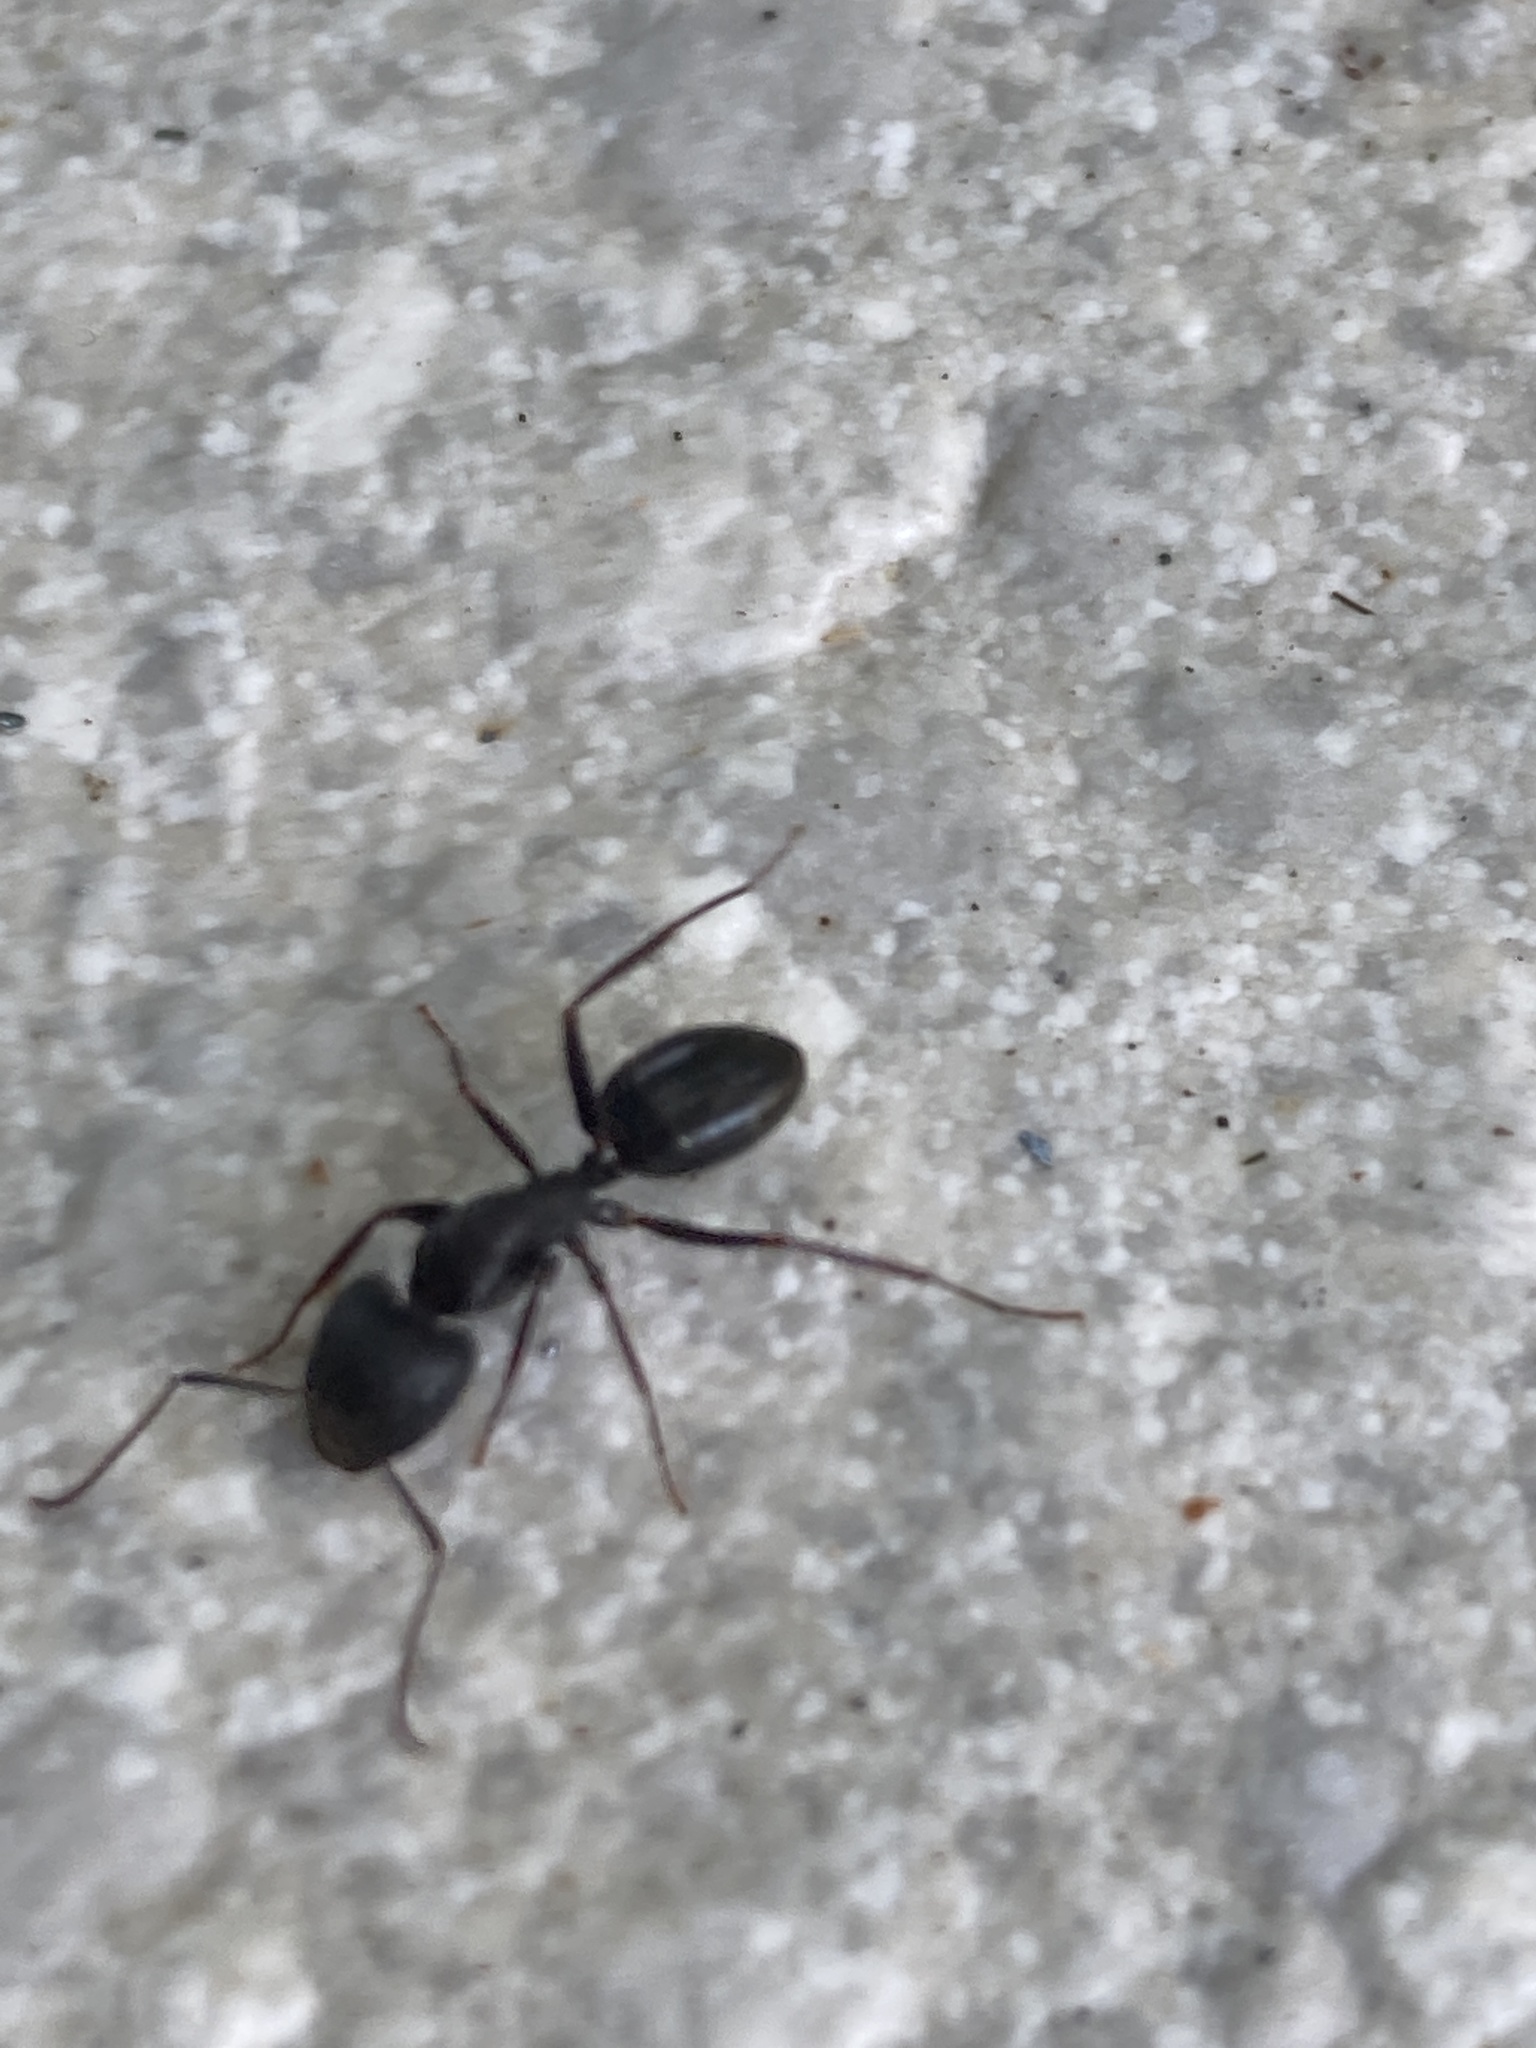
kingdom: Animalia
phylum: Arthropoda
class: Insecta
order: Hymenoptera
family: Formicidae
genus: Camponotus
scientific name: Camponotus aethiops
